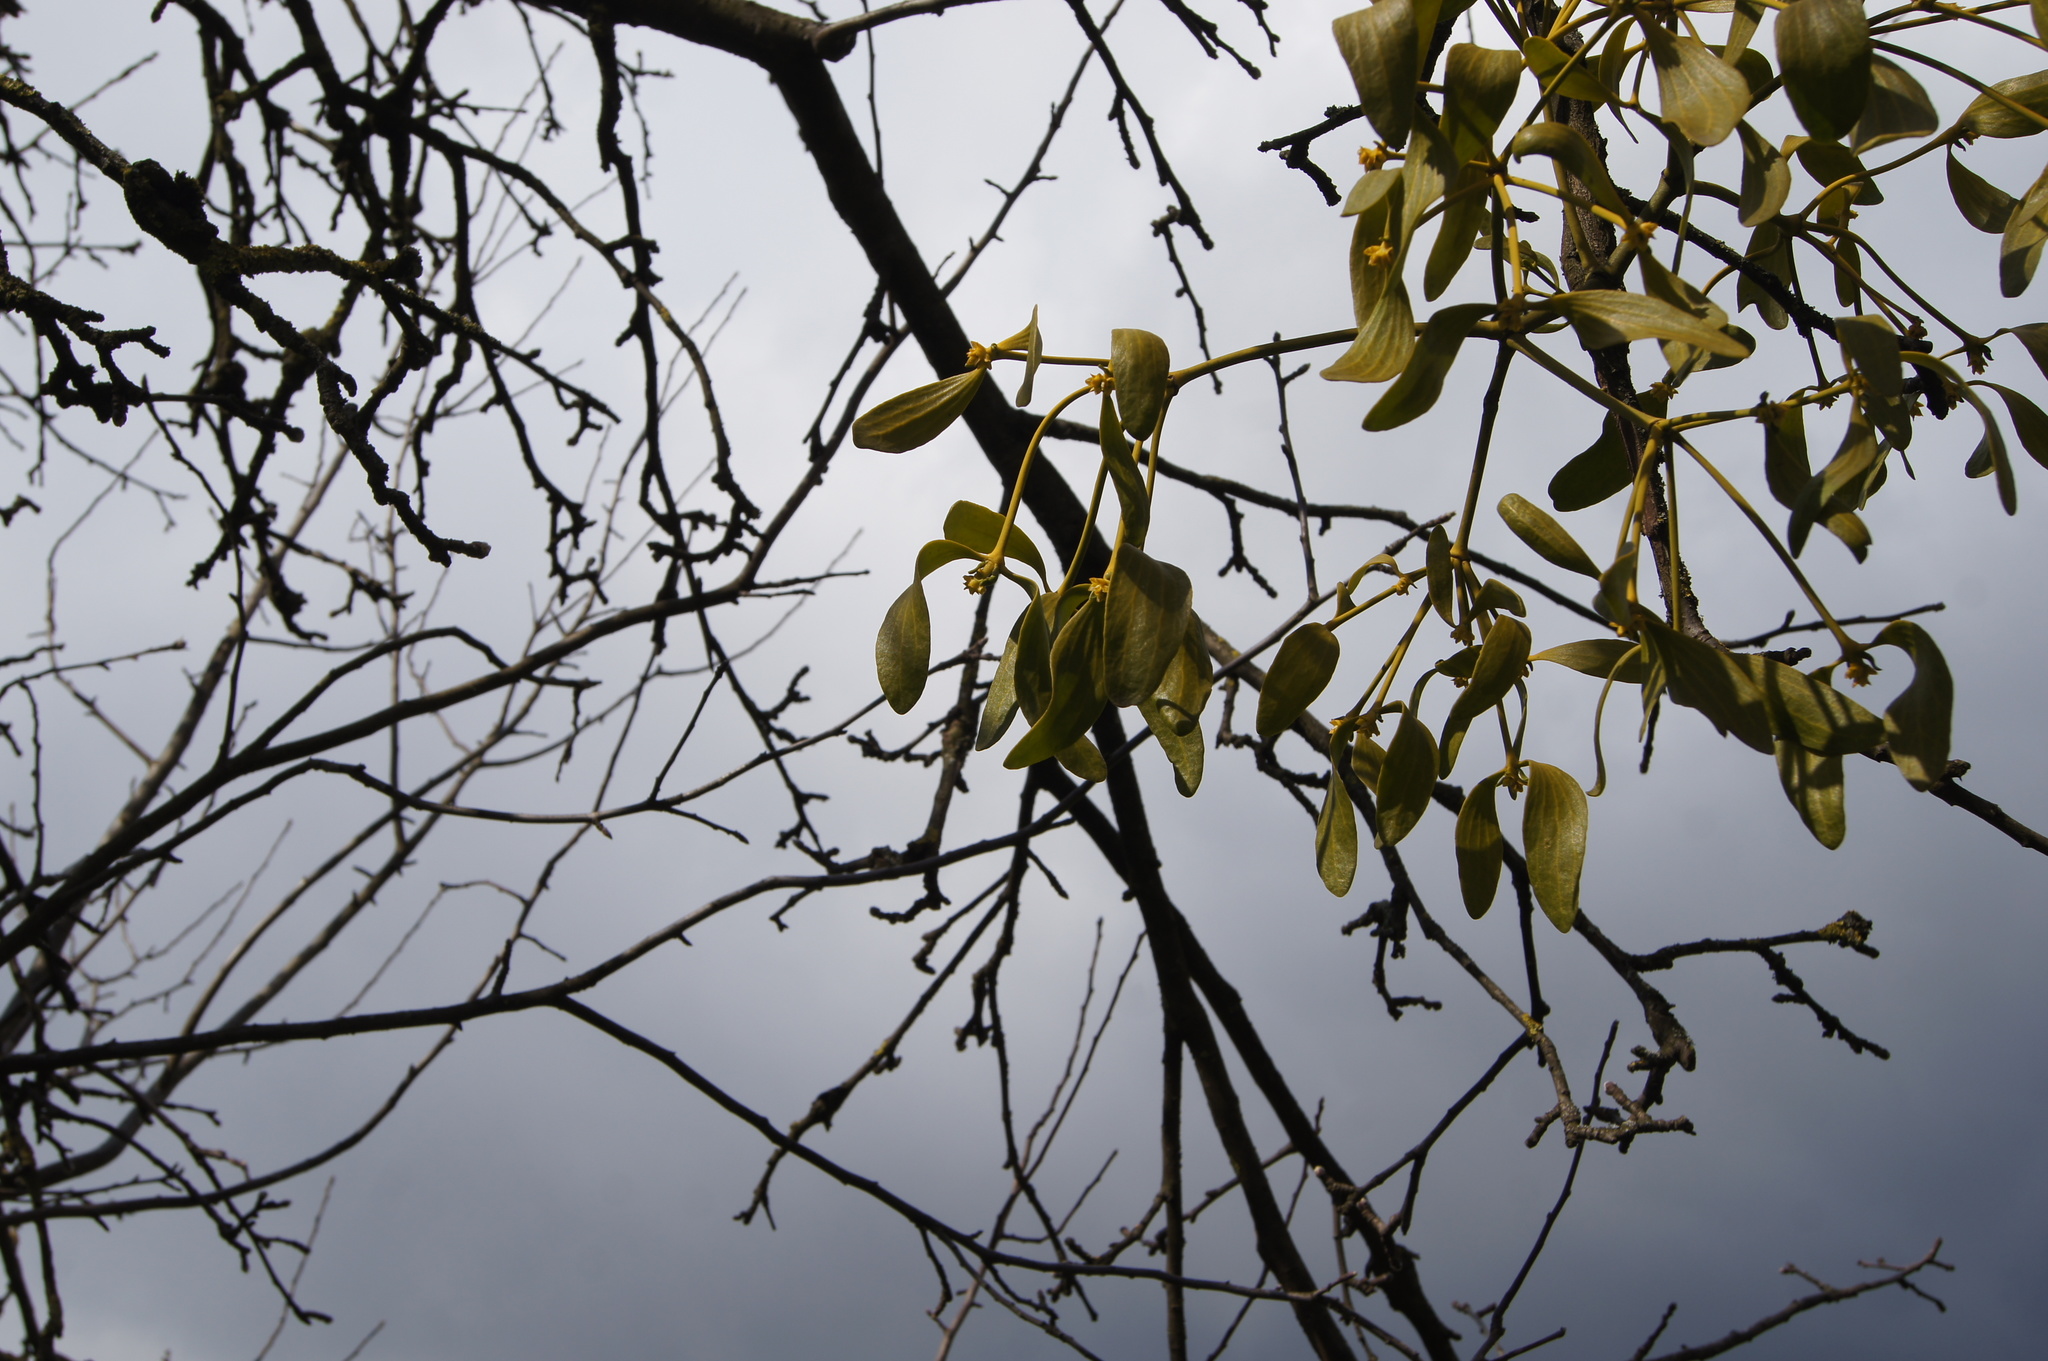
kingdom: Plantae
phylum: Tracheophyta
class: Magnoliopsida
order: Santalales
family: Viscaceae
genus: Viscum
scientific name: Viscum album
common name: Mistletoe
